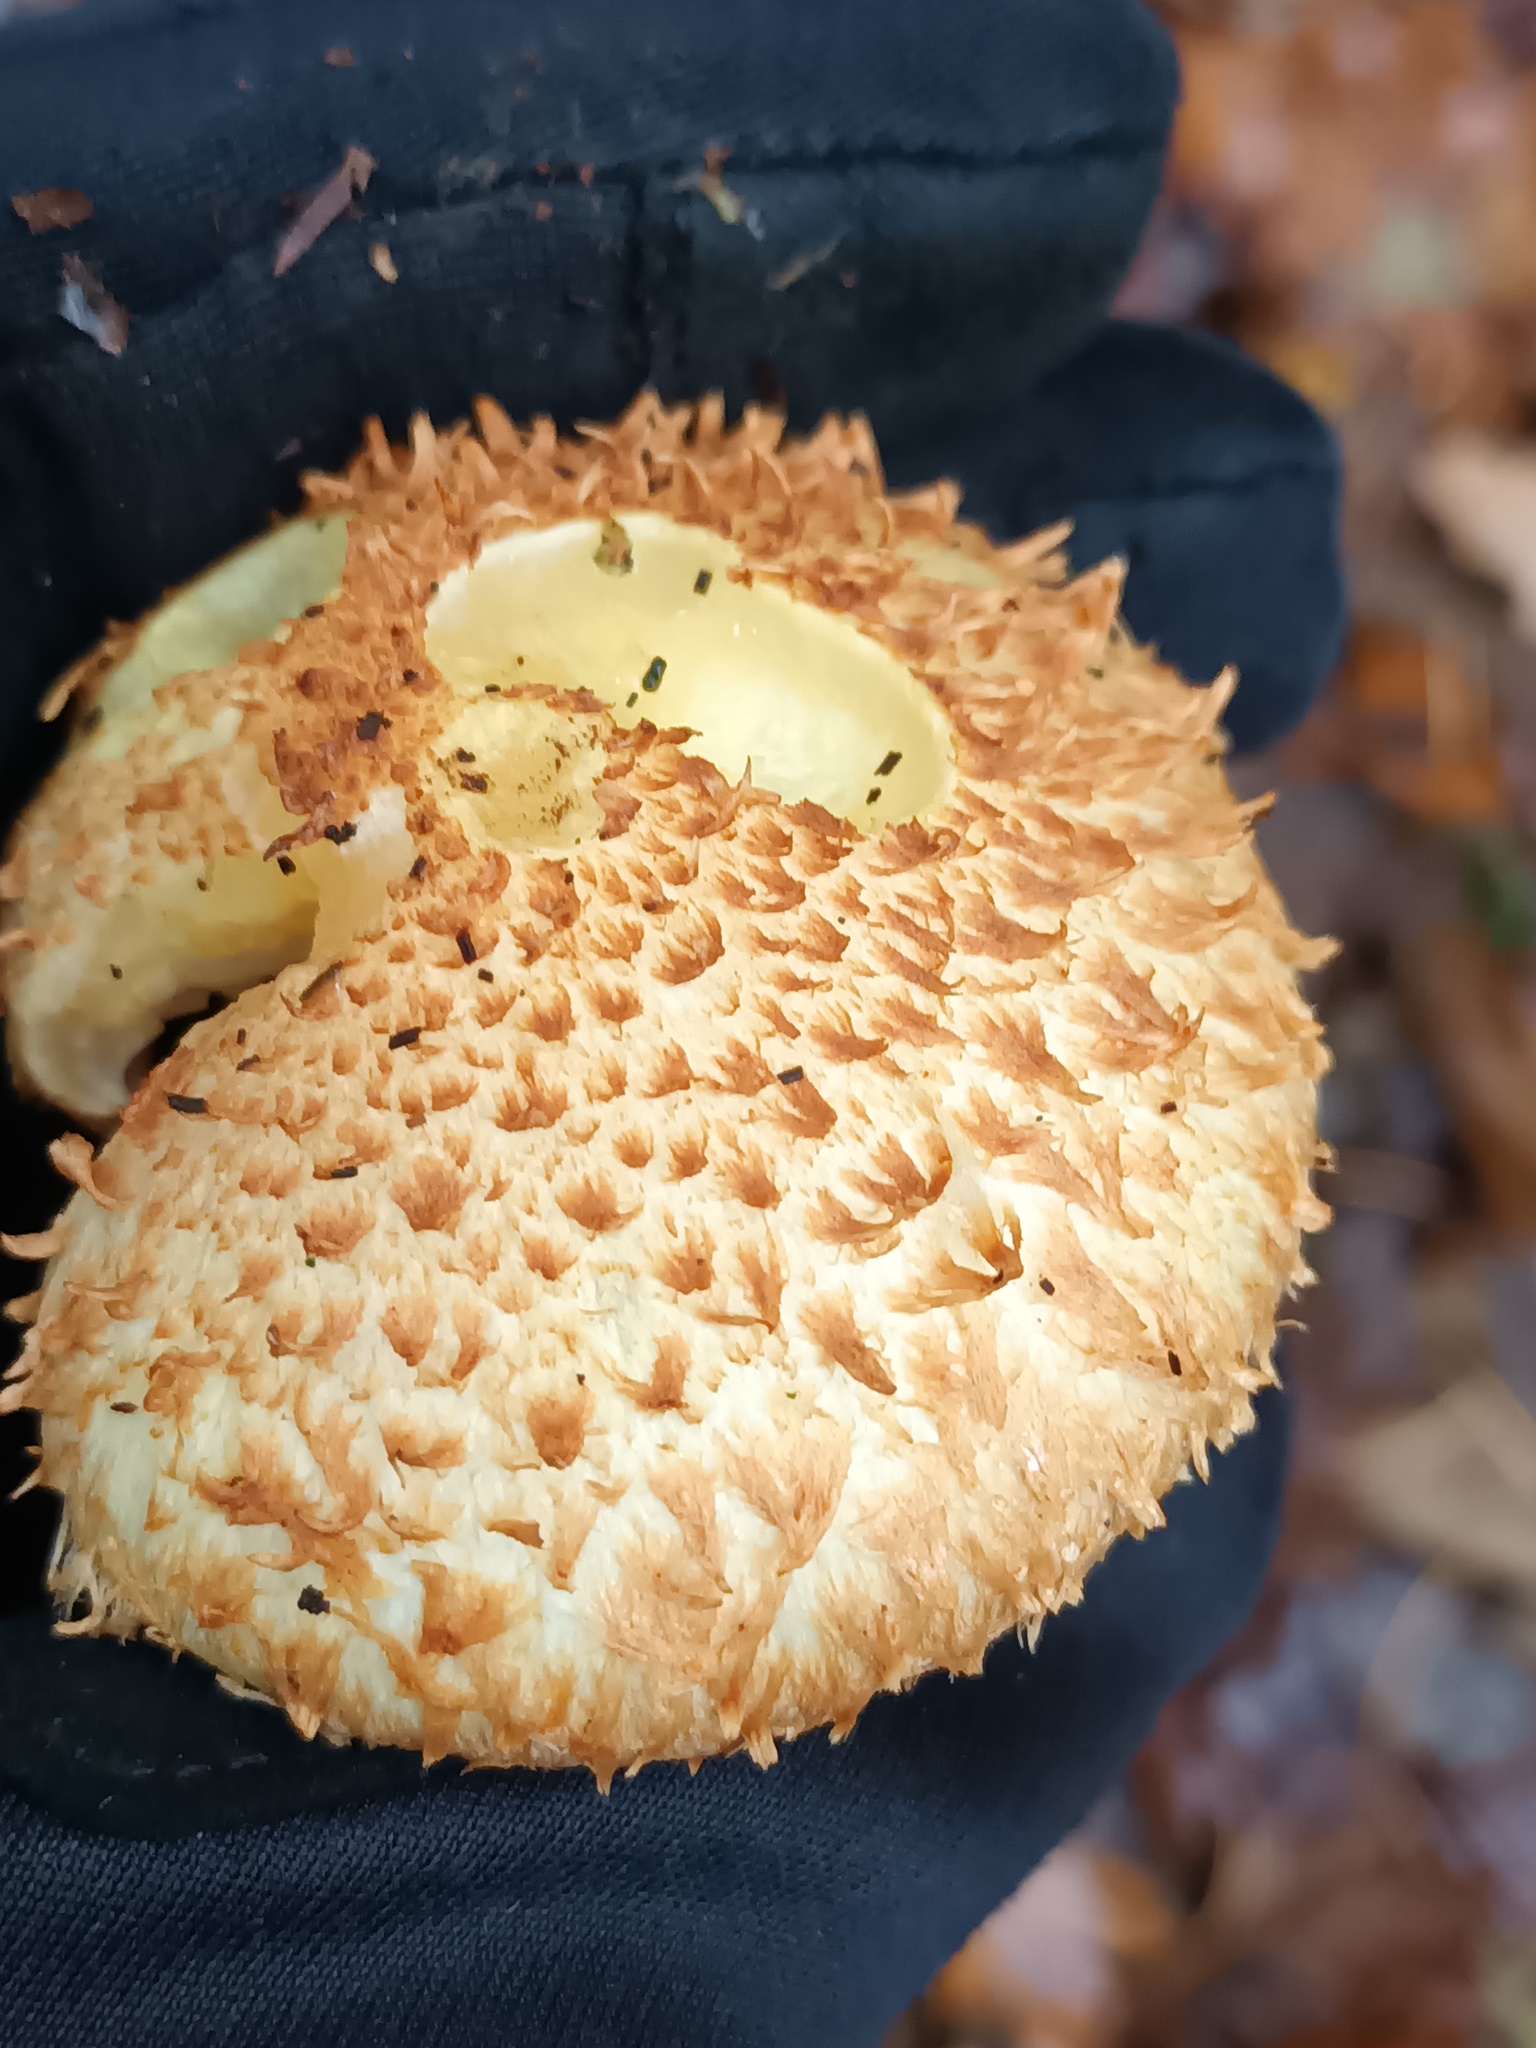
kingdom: Fungi
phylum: Basidiomycota
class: Agaricomycetes
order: Agaricales
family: Strophariaceae
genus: Pholiota
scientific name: Pholiota squarrosa
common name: Shaggy pholiota
